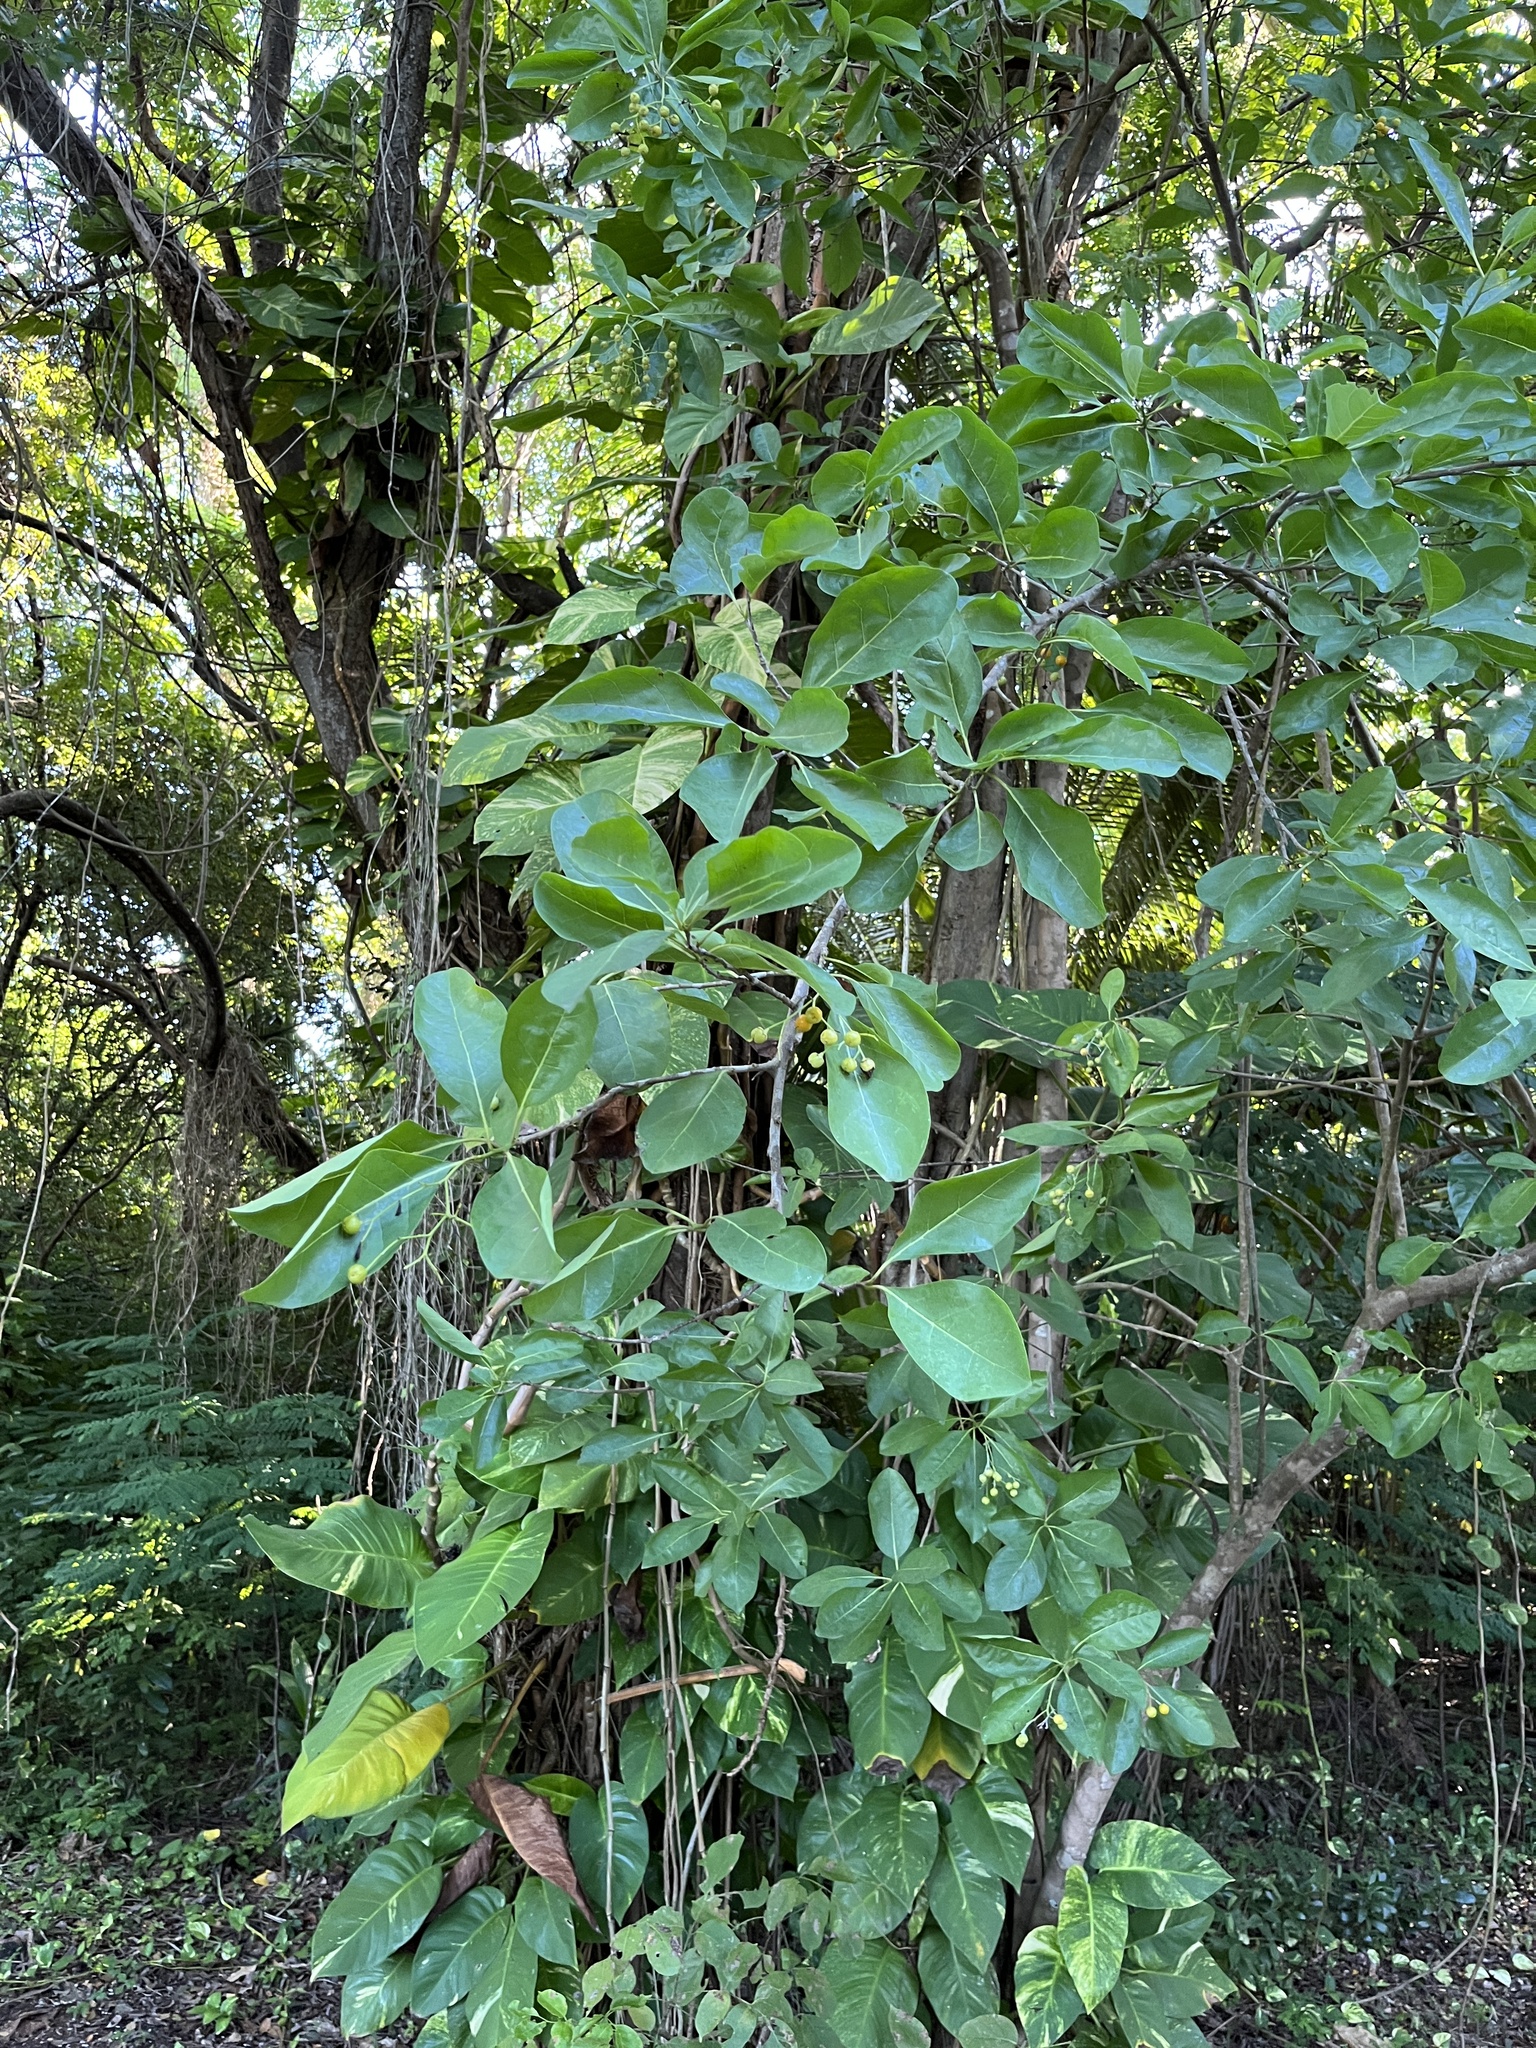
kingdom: Plantae
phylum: Tracheophyta
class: Magnoliopsida
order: Boraginales
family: Ehretiaceae
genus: Bourreria
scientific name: Bourreria succulenta
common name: Cherry
